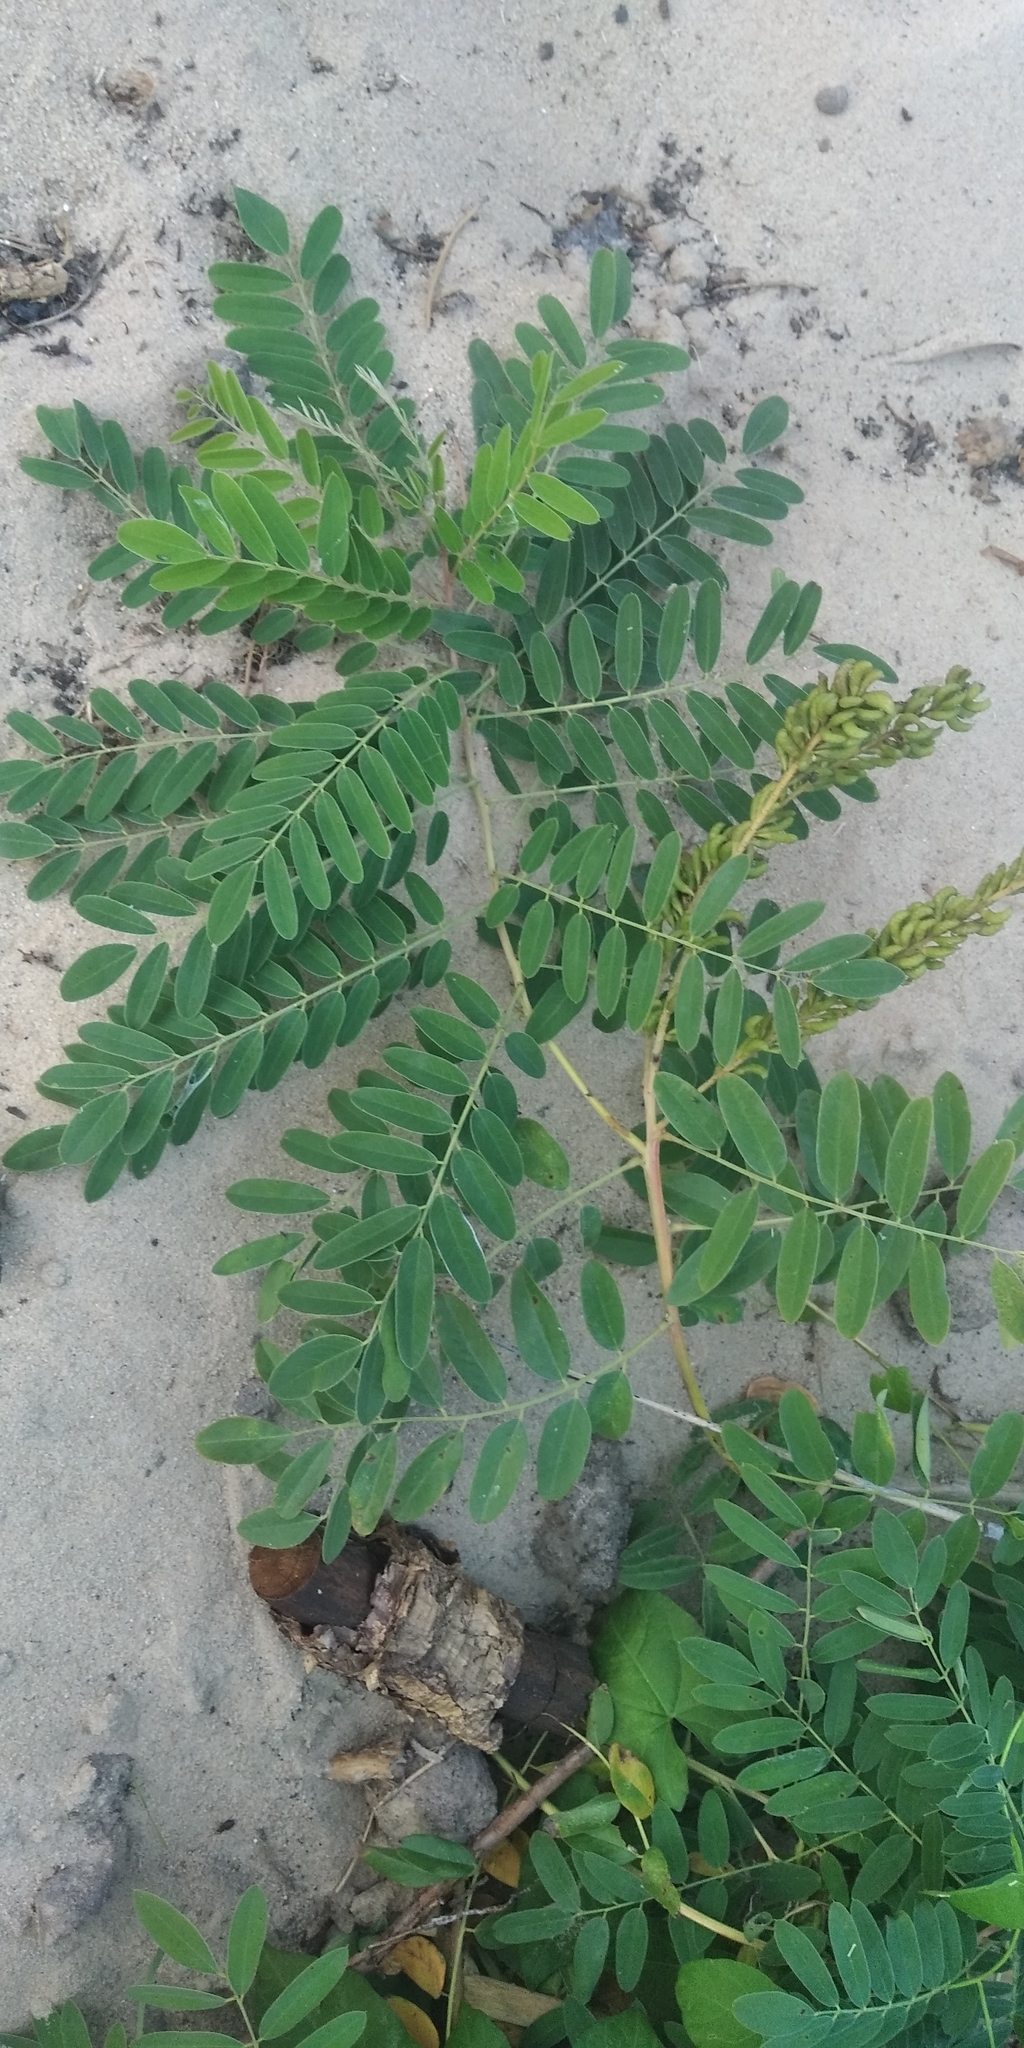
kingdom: Plantae
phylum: Tracheophyta
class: Magnoliopsida
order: Fabales
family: Fabaceae
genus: Amorpha
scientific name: Amorpha fruticosa
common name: False indigo
